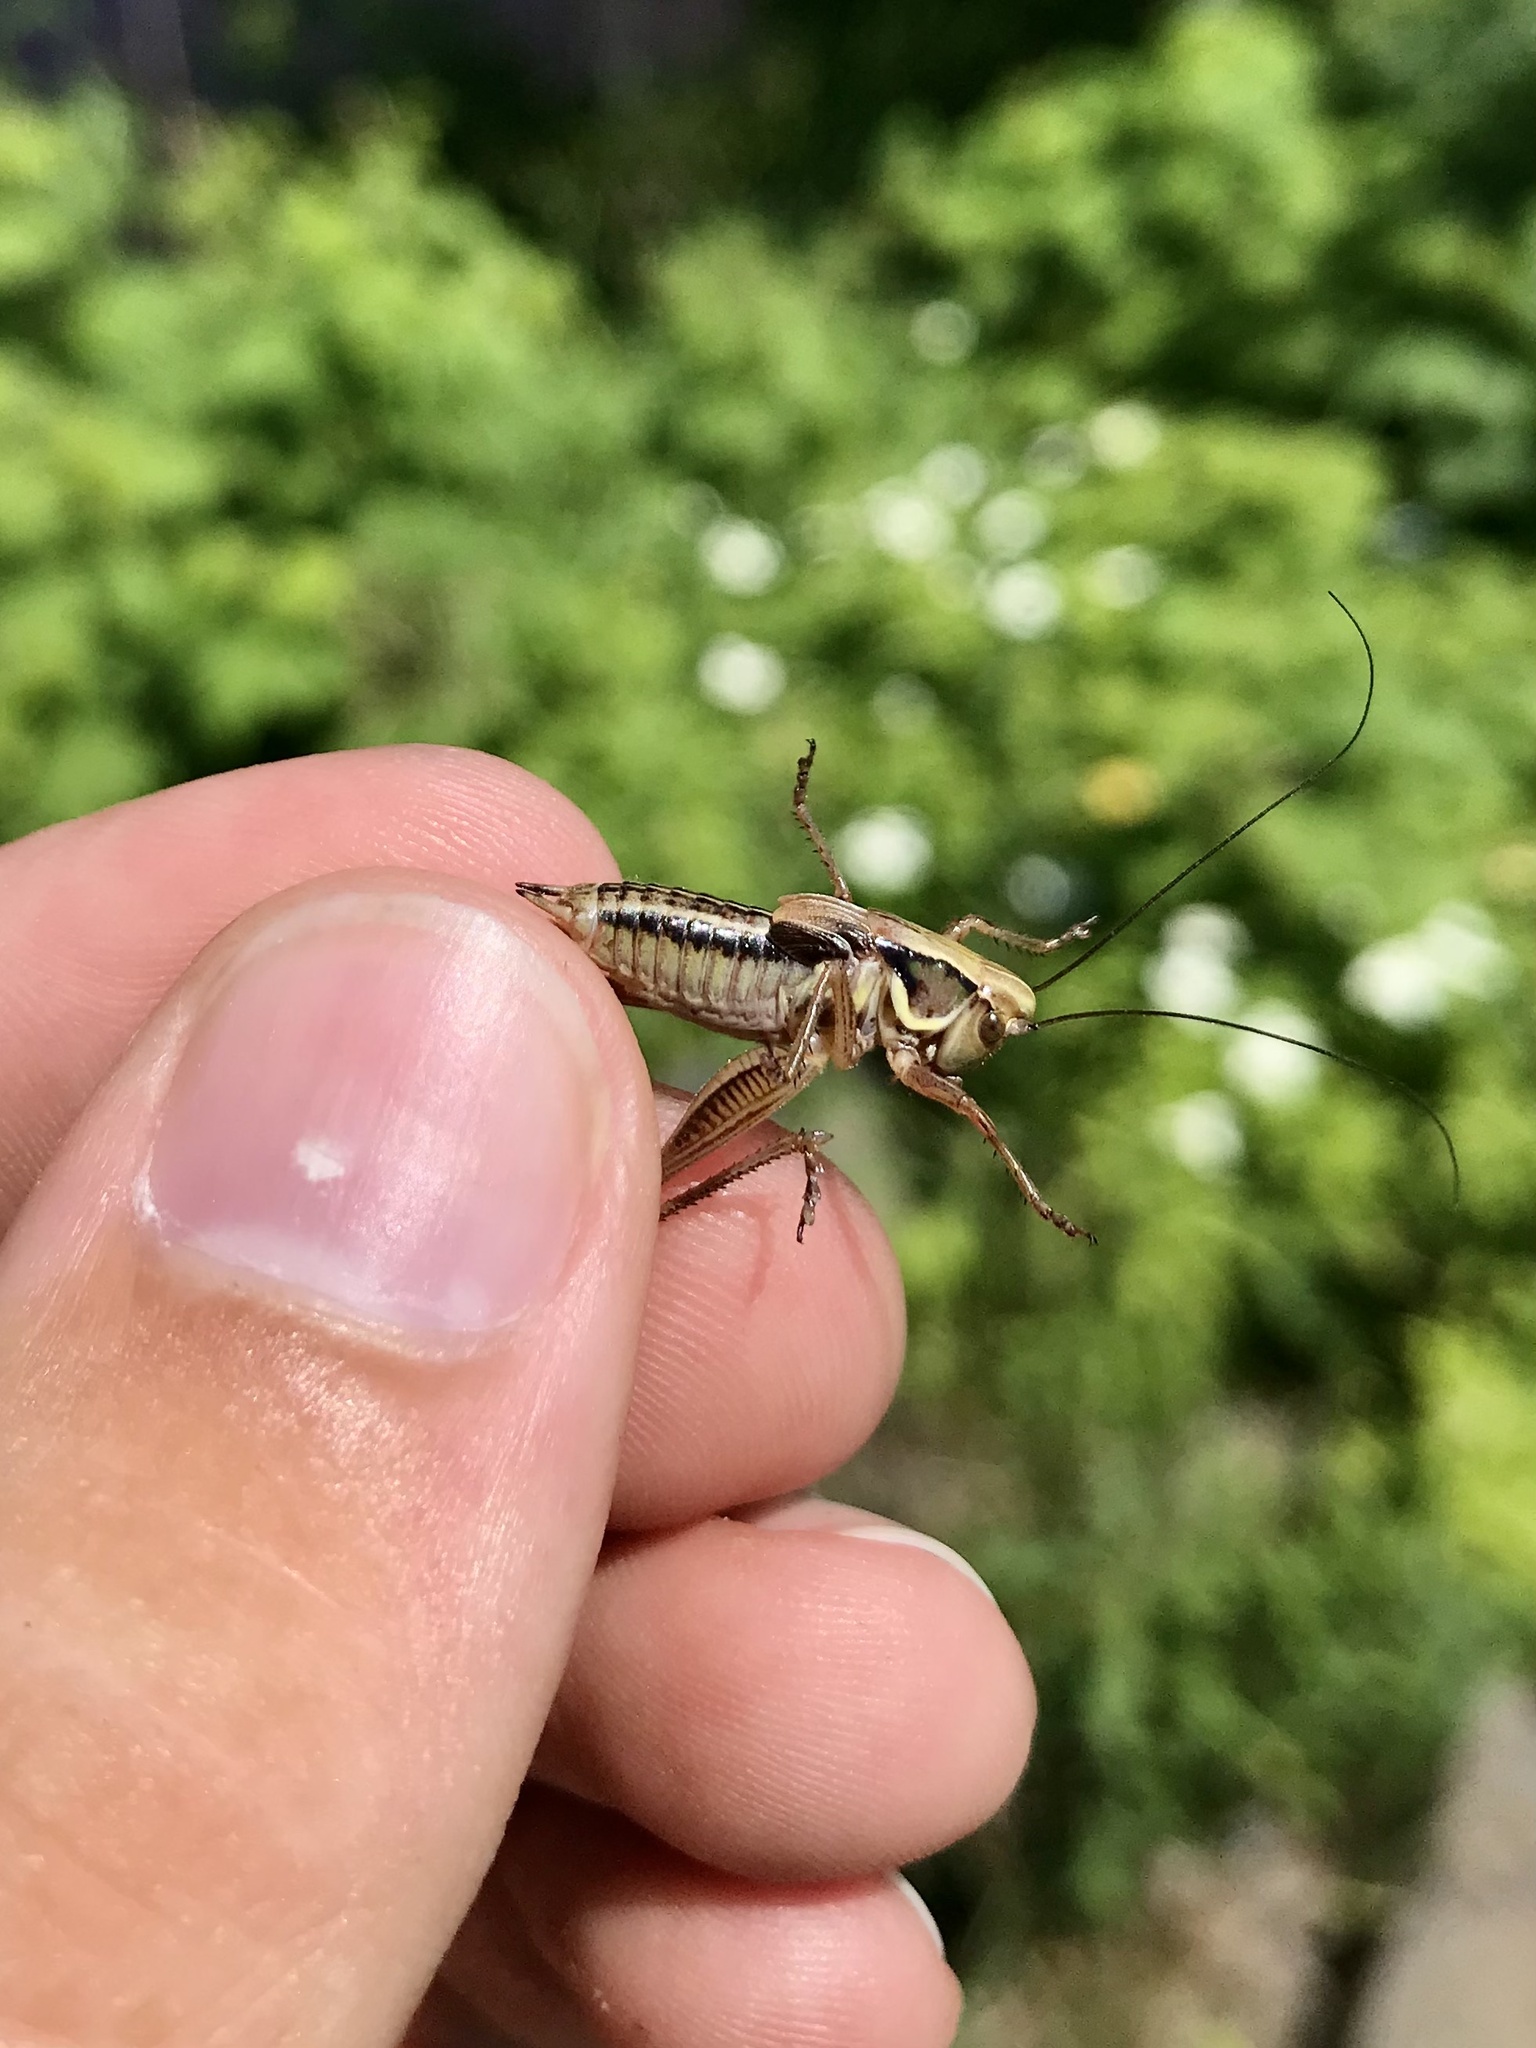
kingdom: Animalia
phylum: Arthropoda
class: Insecta
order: Orthoptera
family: Tettigoniidae
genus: Roeseliana
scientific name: Roeseliana roeselii
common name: Roesel's bush cricket
